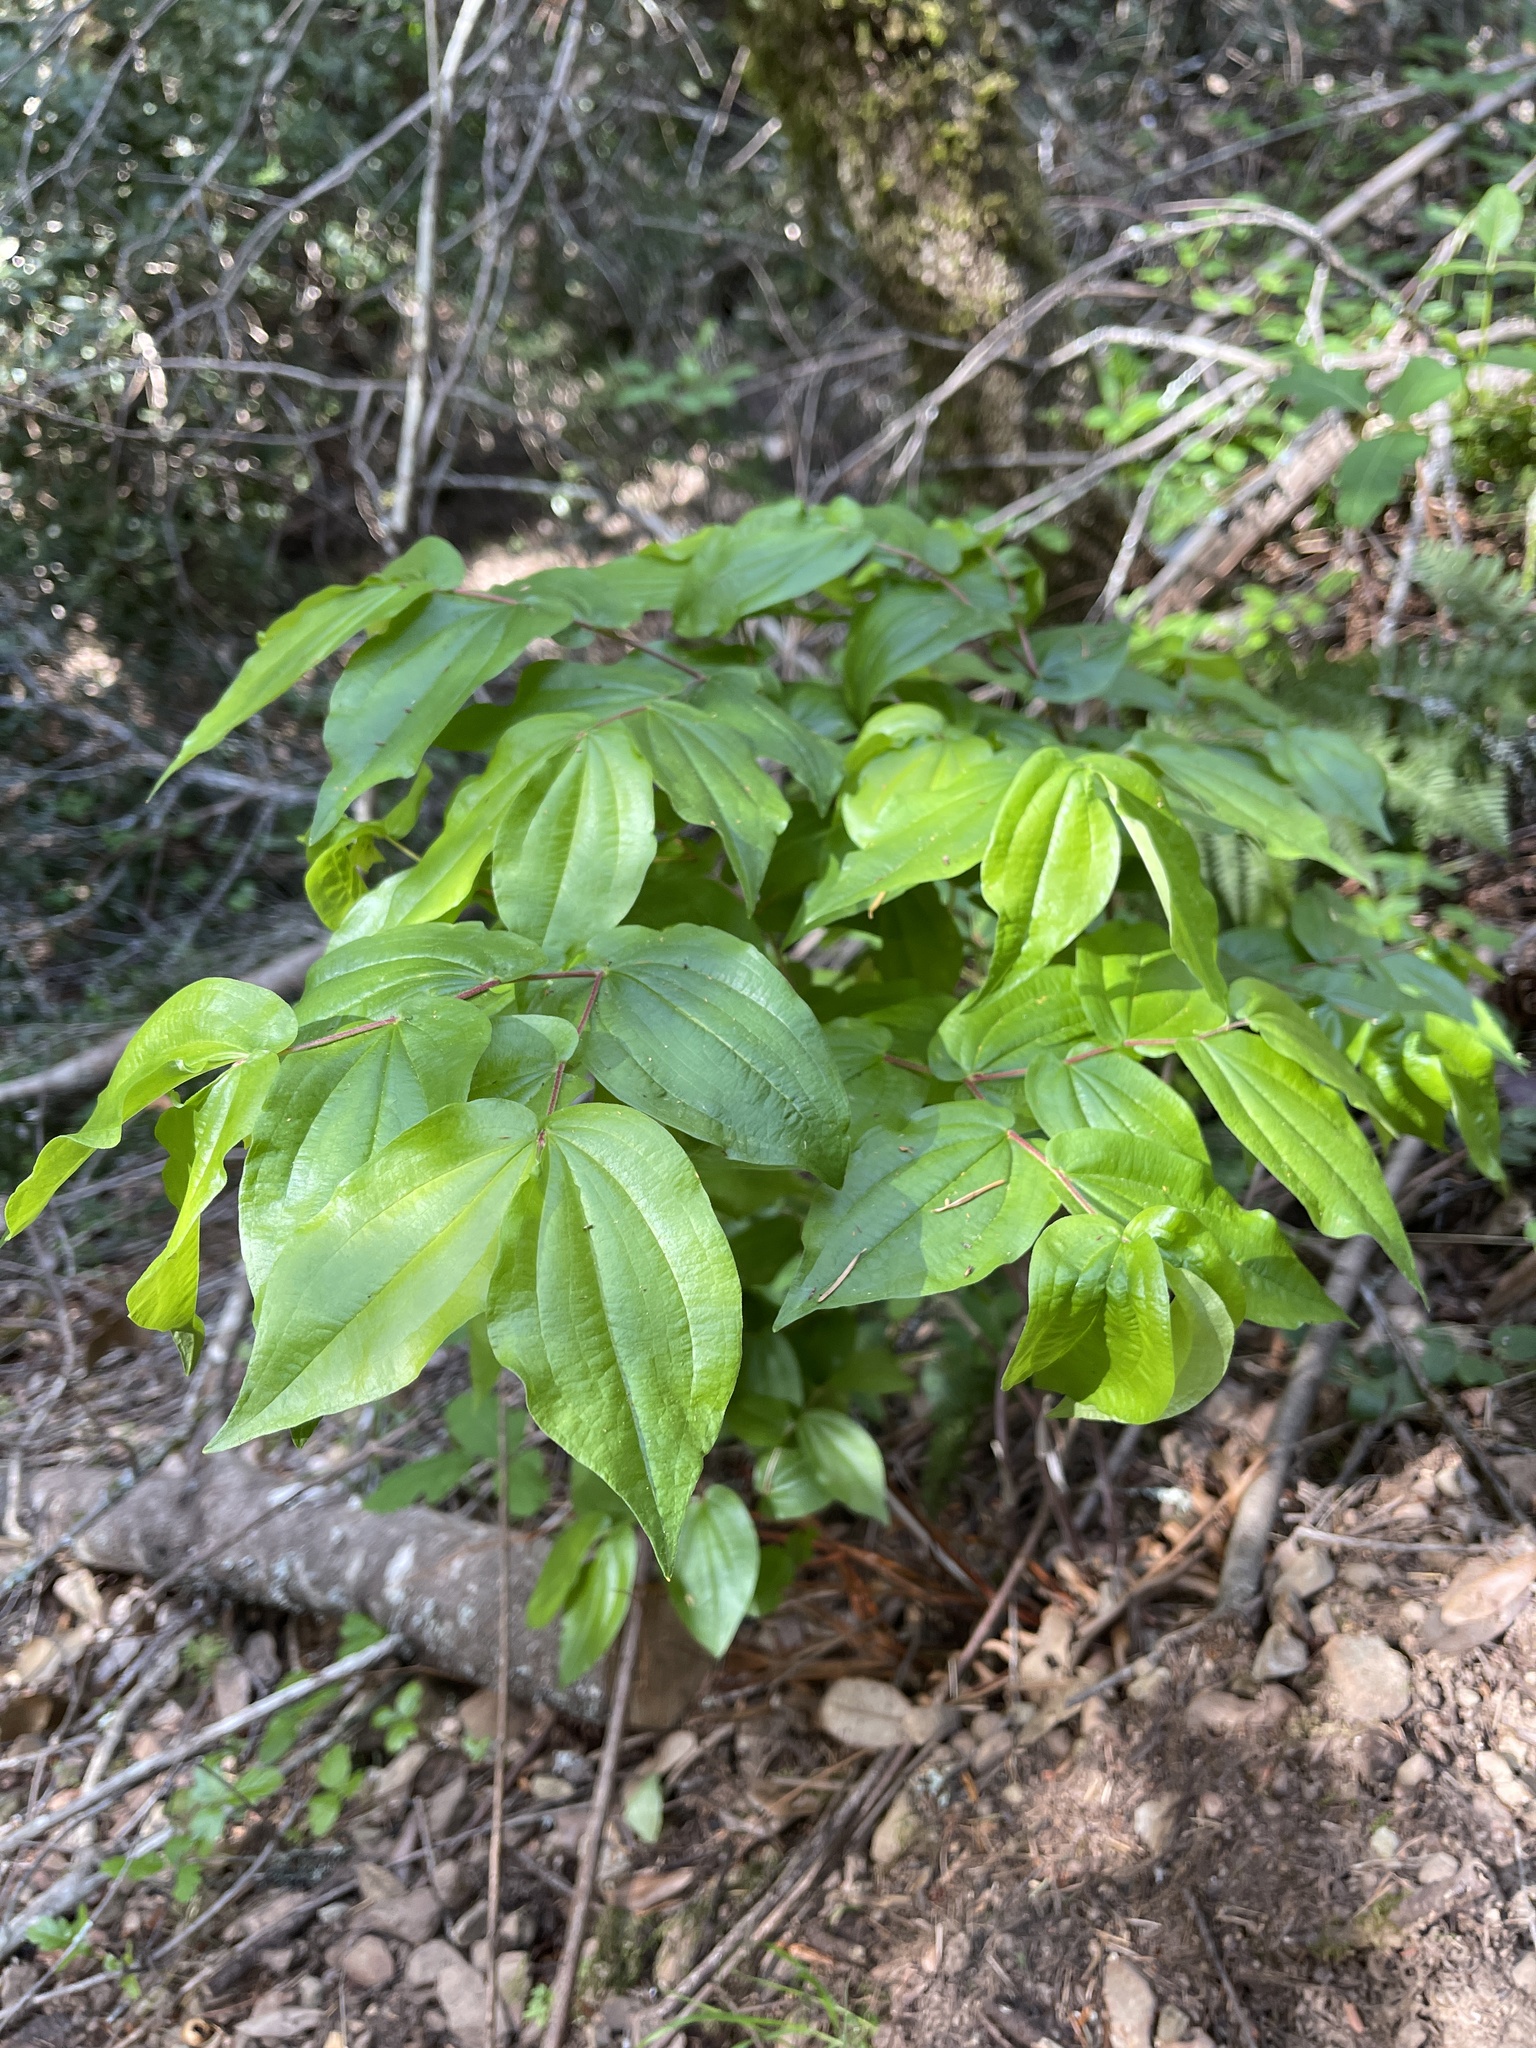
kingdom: Plantae
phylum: Tracheophyta
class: Liliopsida
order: Liliales
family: Liliaceae
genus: Prosartes
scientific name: Prosartes hookeri
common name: Fairy-bells
